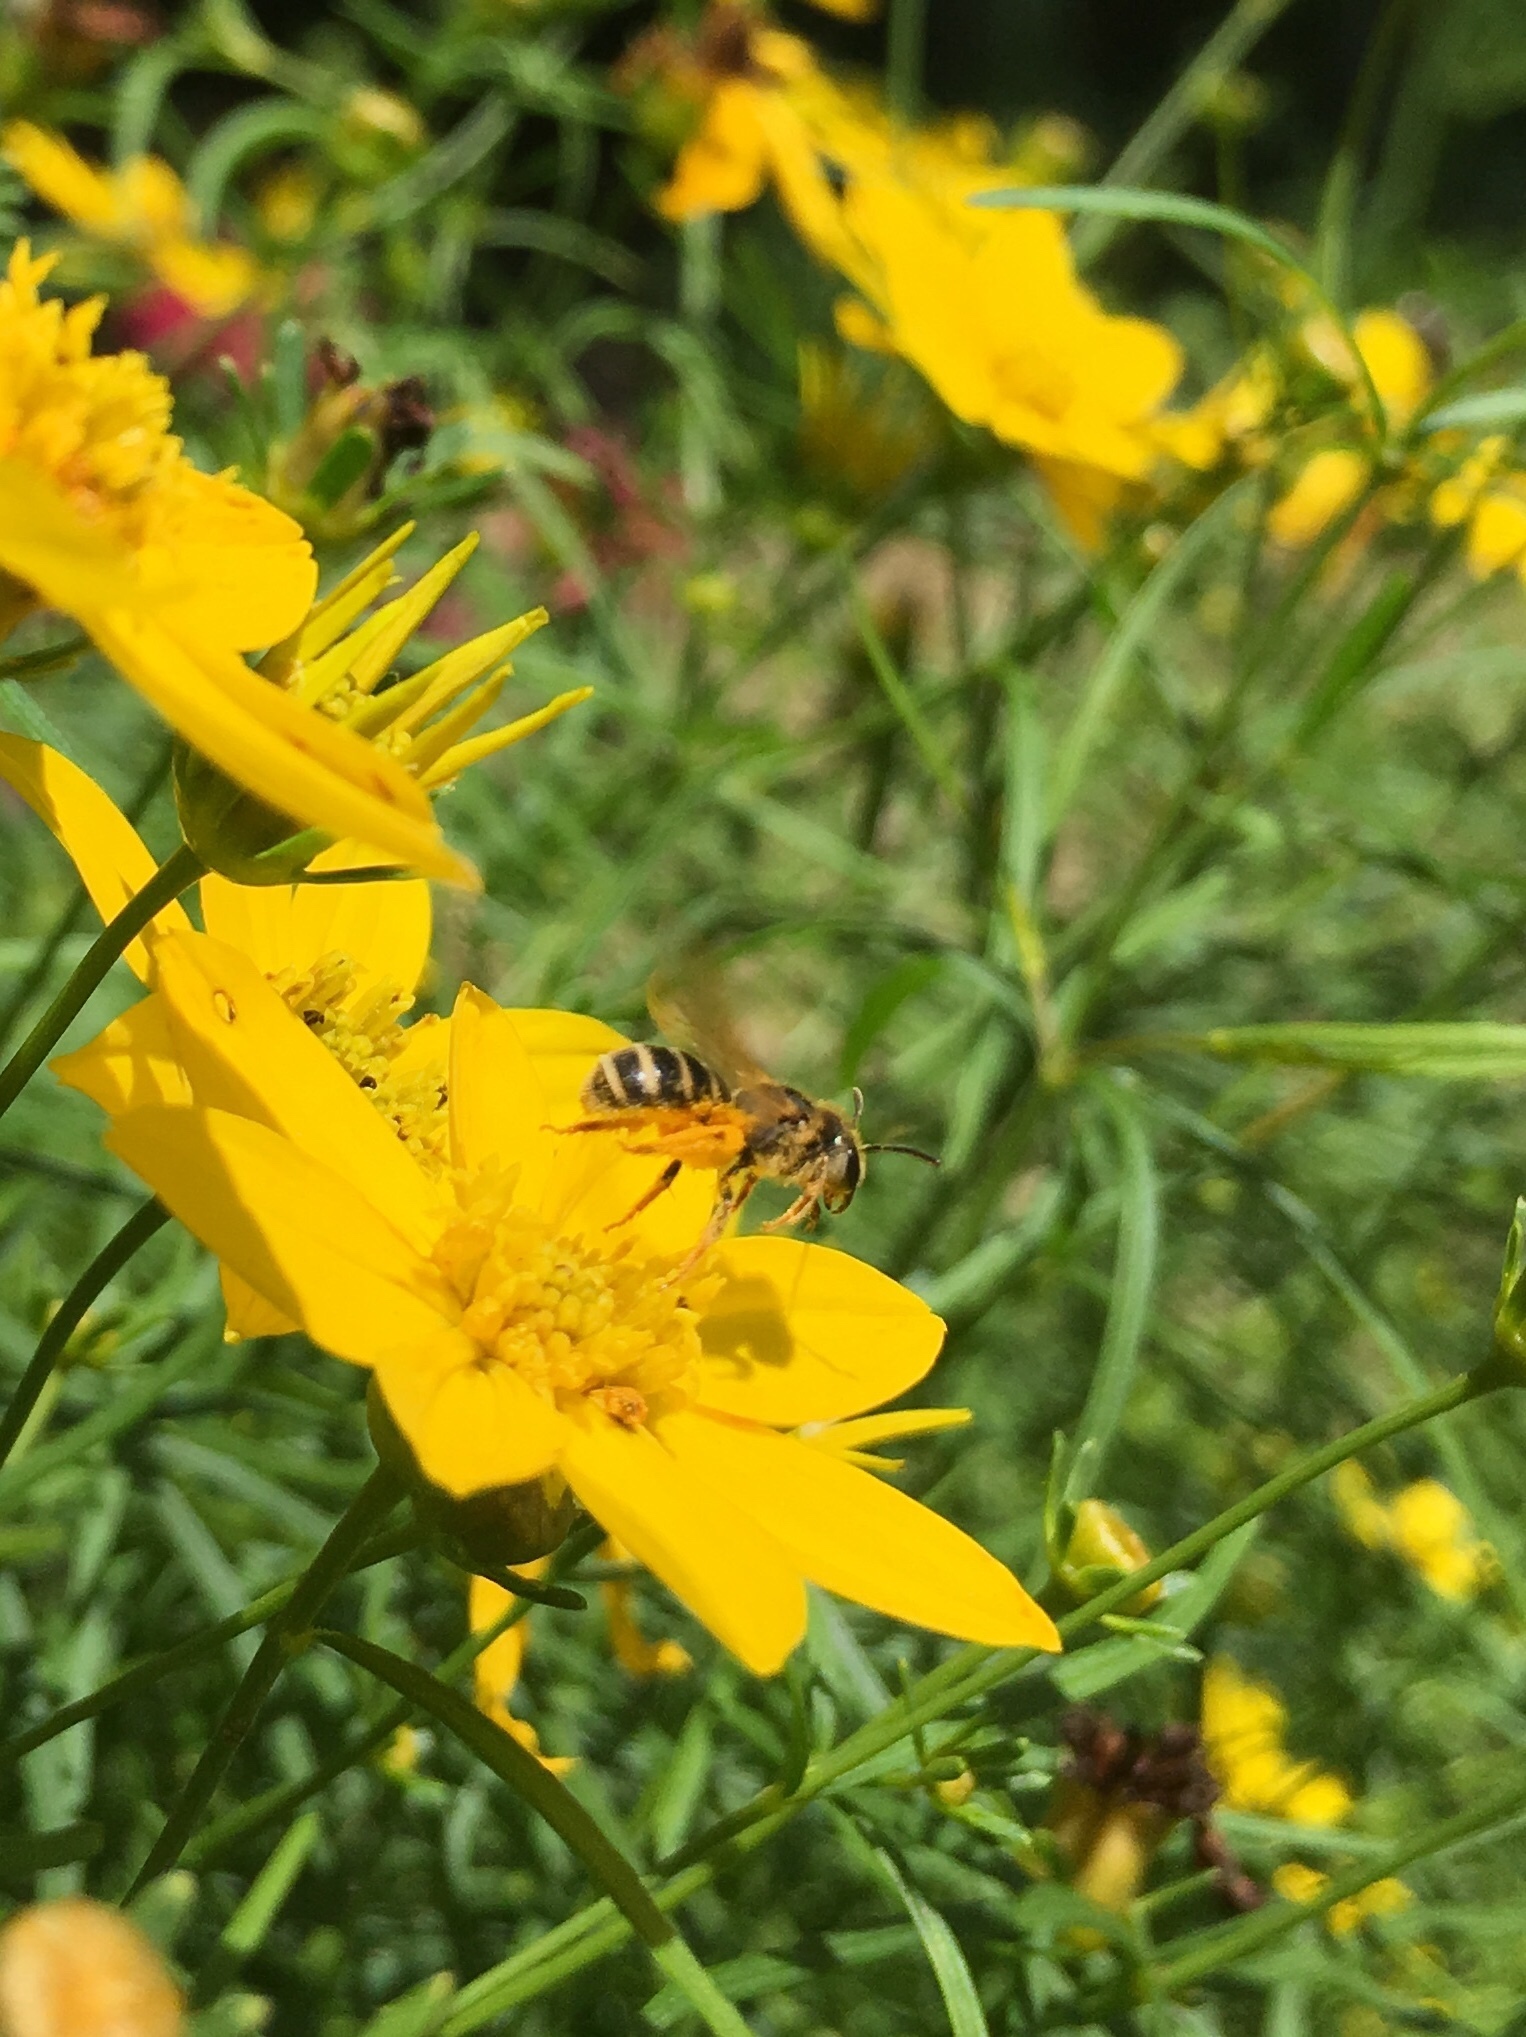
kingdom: Animalia
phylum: Arthropoda
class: Insecta
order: Hymenoptera
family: Halictidae
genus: Halictus
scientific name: Halictus ligatus
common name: Ligated furrow bee
